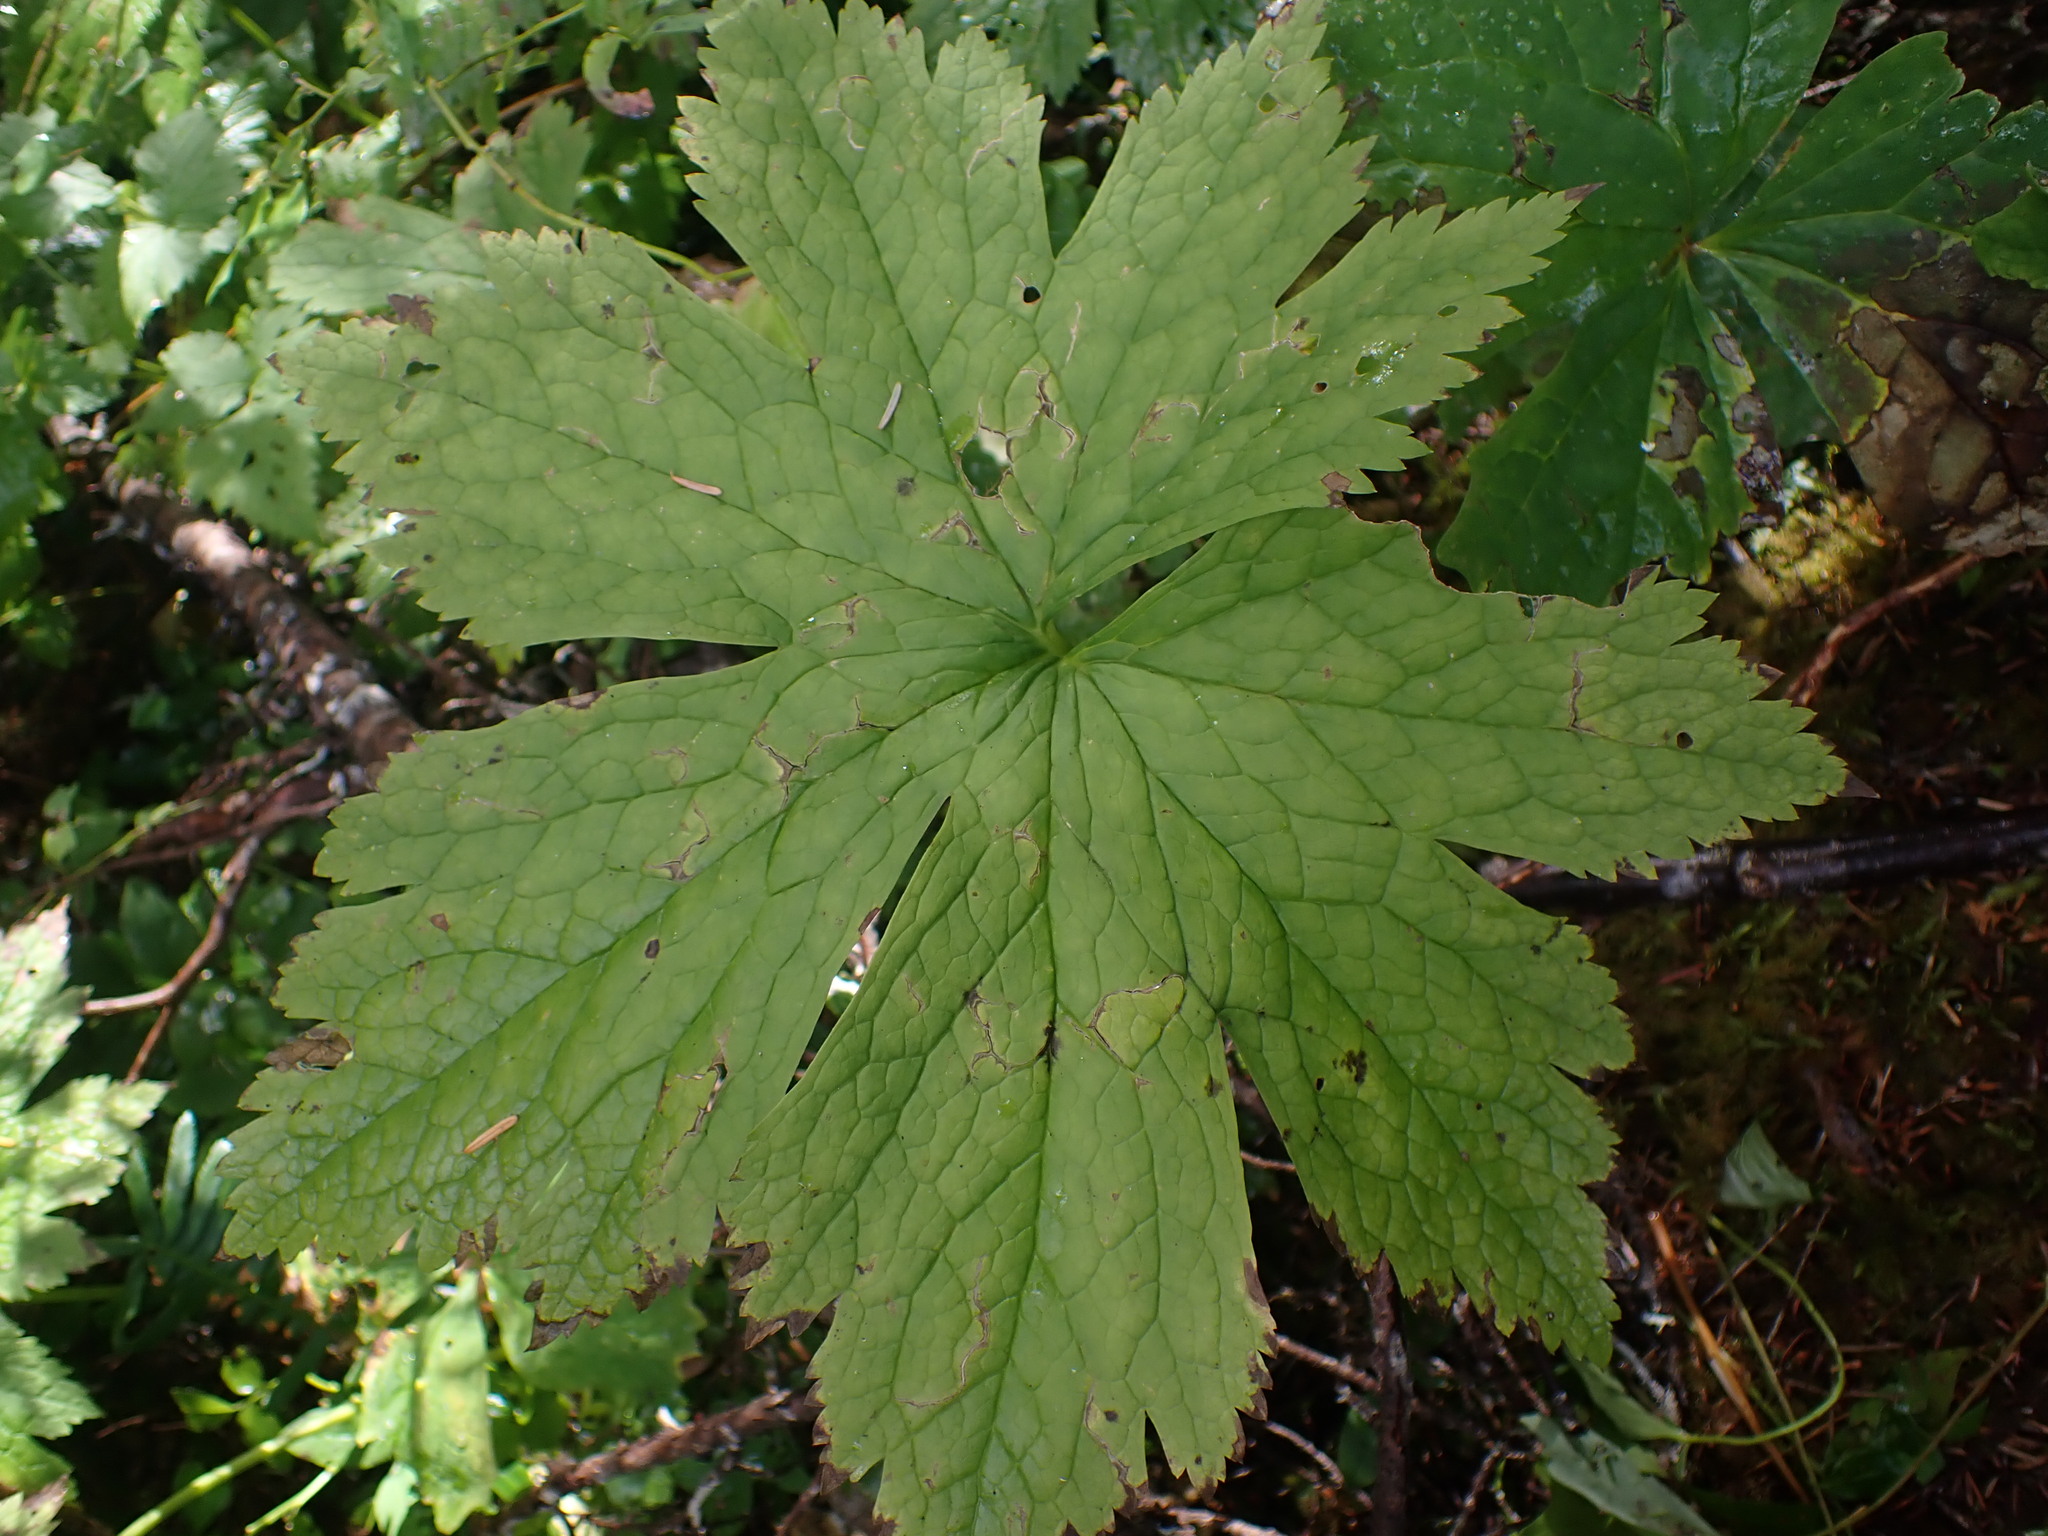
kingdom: Plantae
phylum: Tracheophyta
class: Magnoliopsida
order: Ranunculales
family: Ranunculaceae
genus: Trautvetteria
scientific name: Trautvetteria carolinensis
